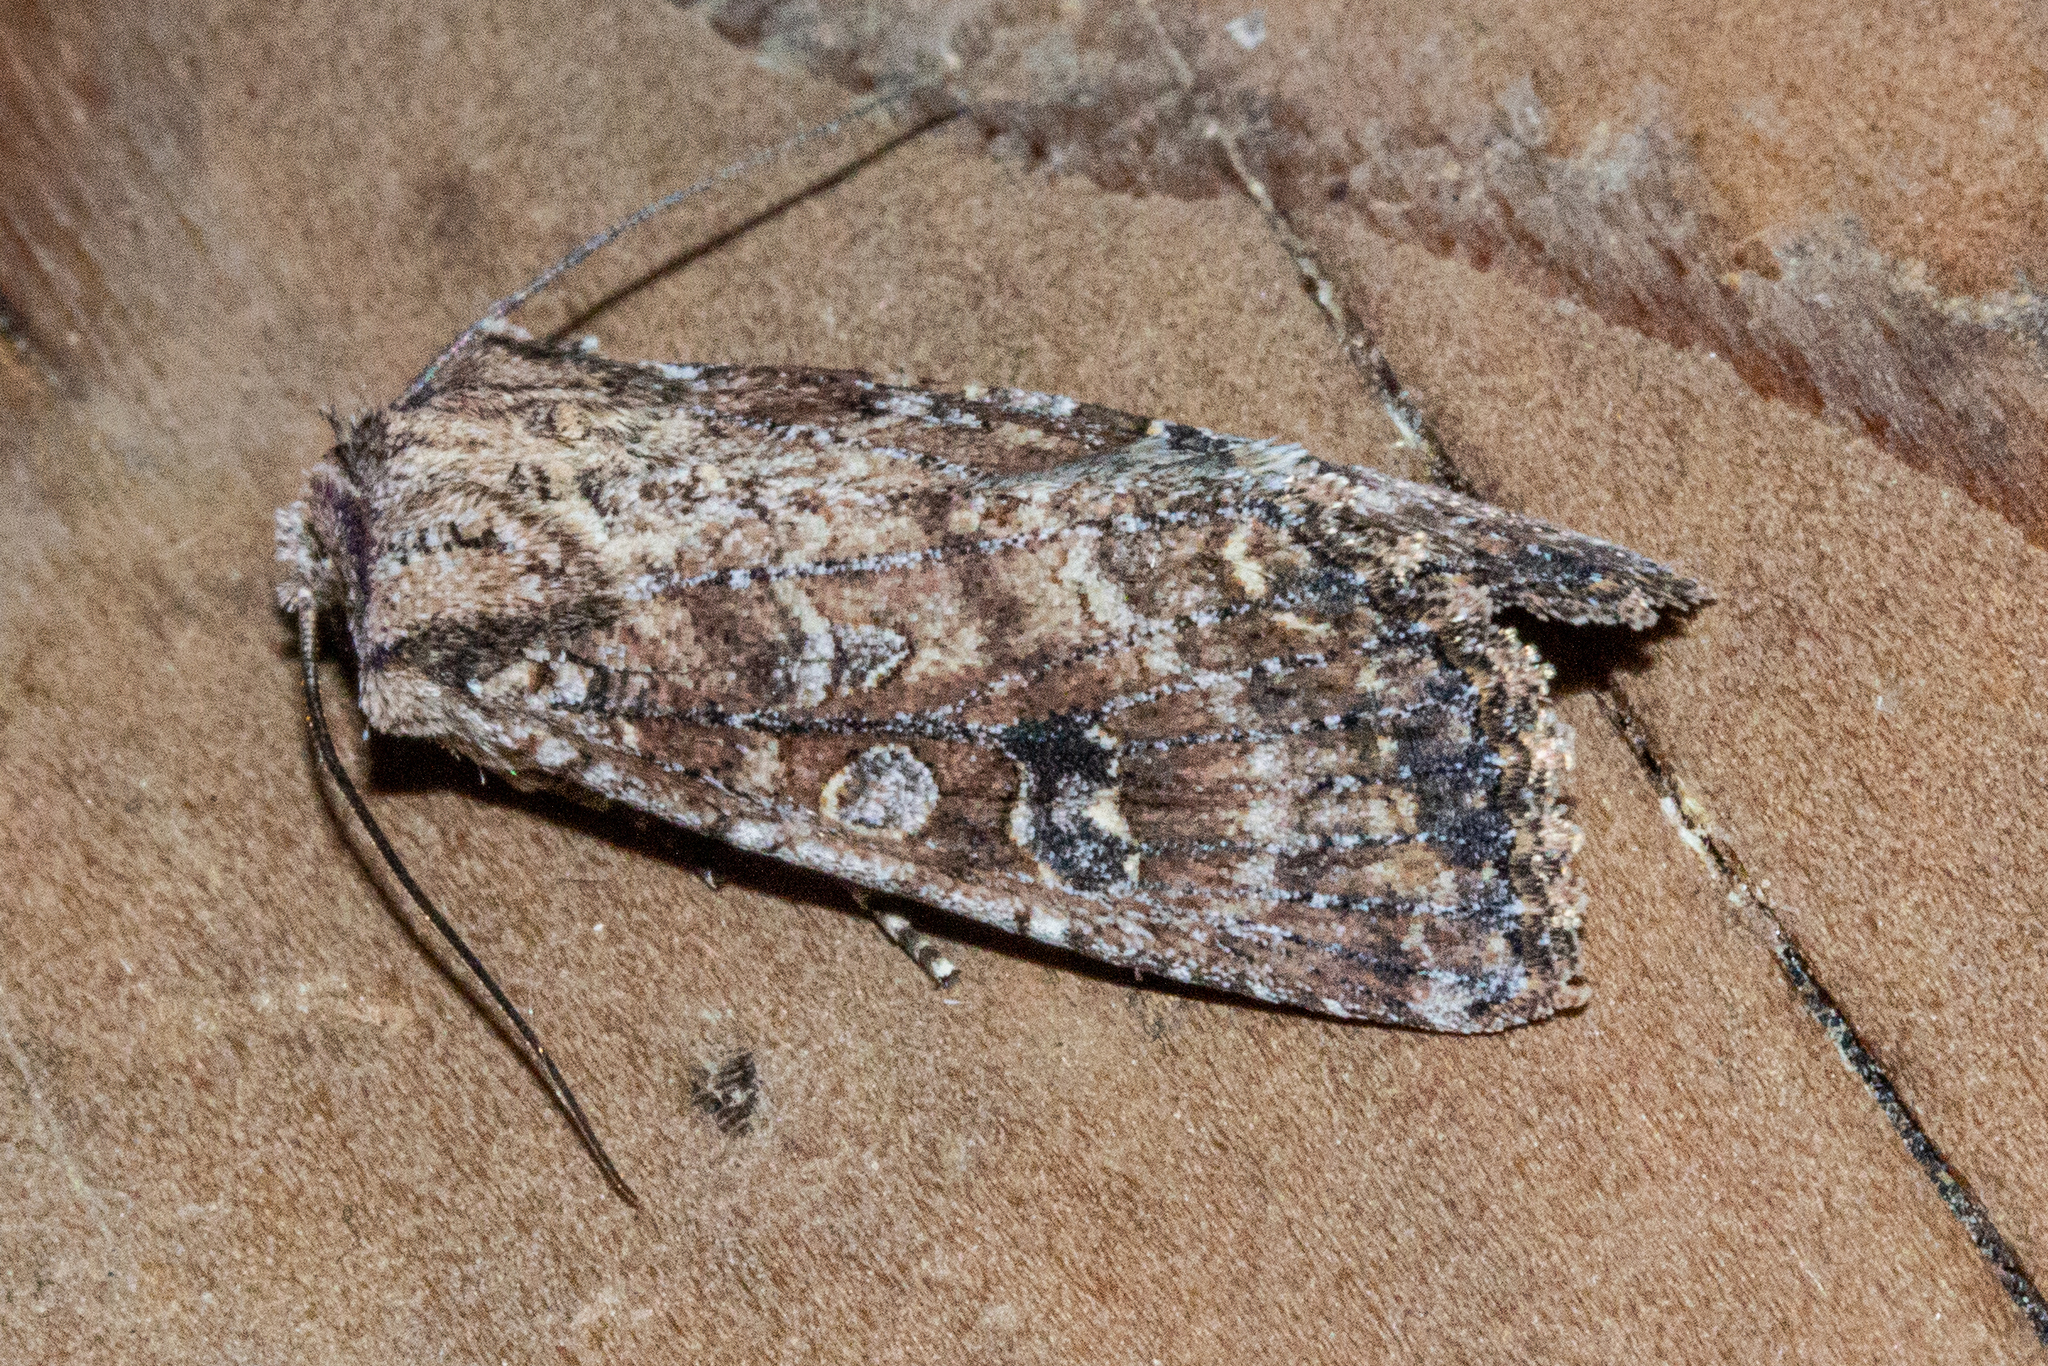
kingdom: Animalia
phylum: Arthropoda
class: Insecta
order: Lepidoptera
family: Noctuidae
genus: Ichneutica
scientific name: Ichneutica mustulenta
